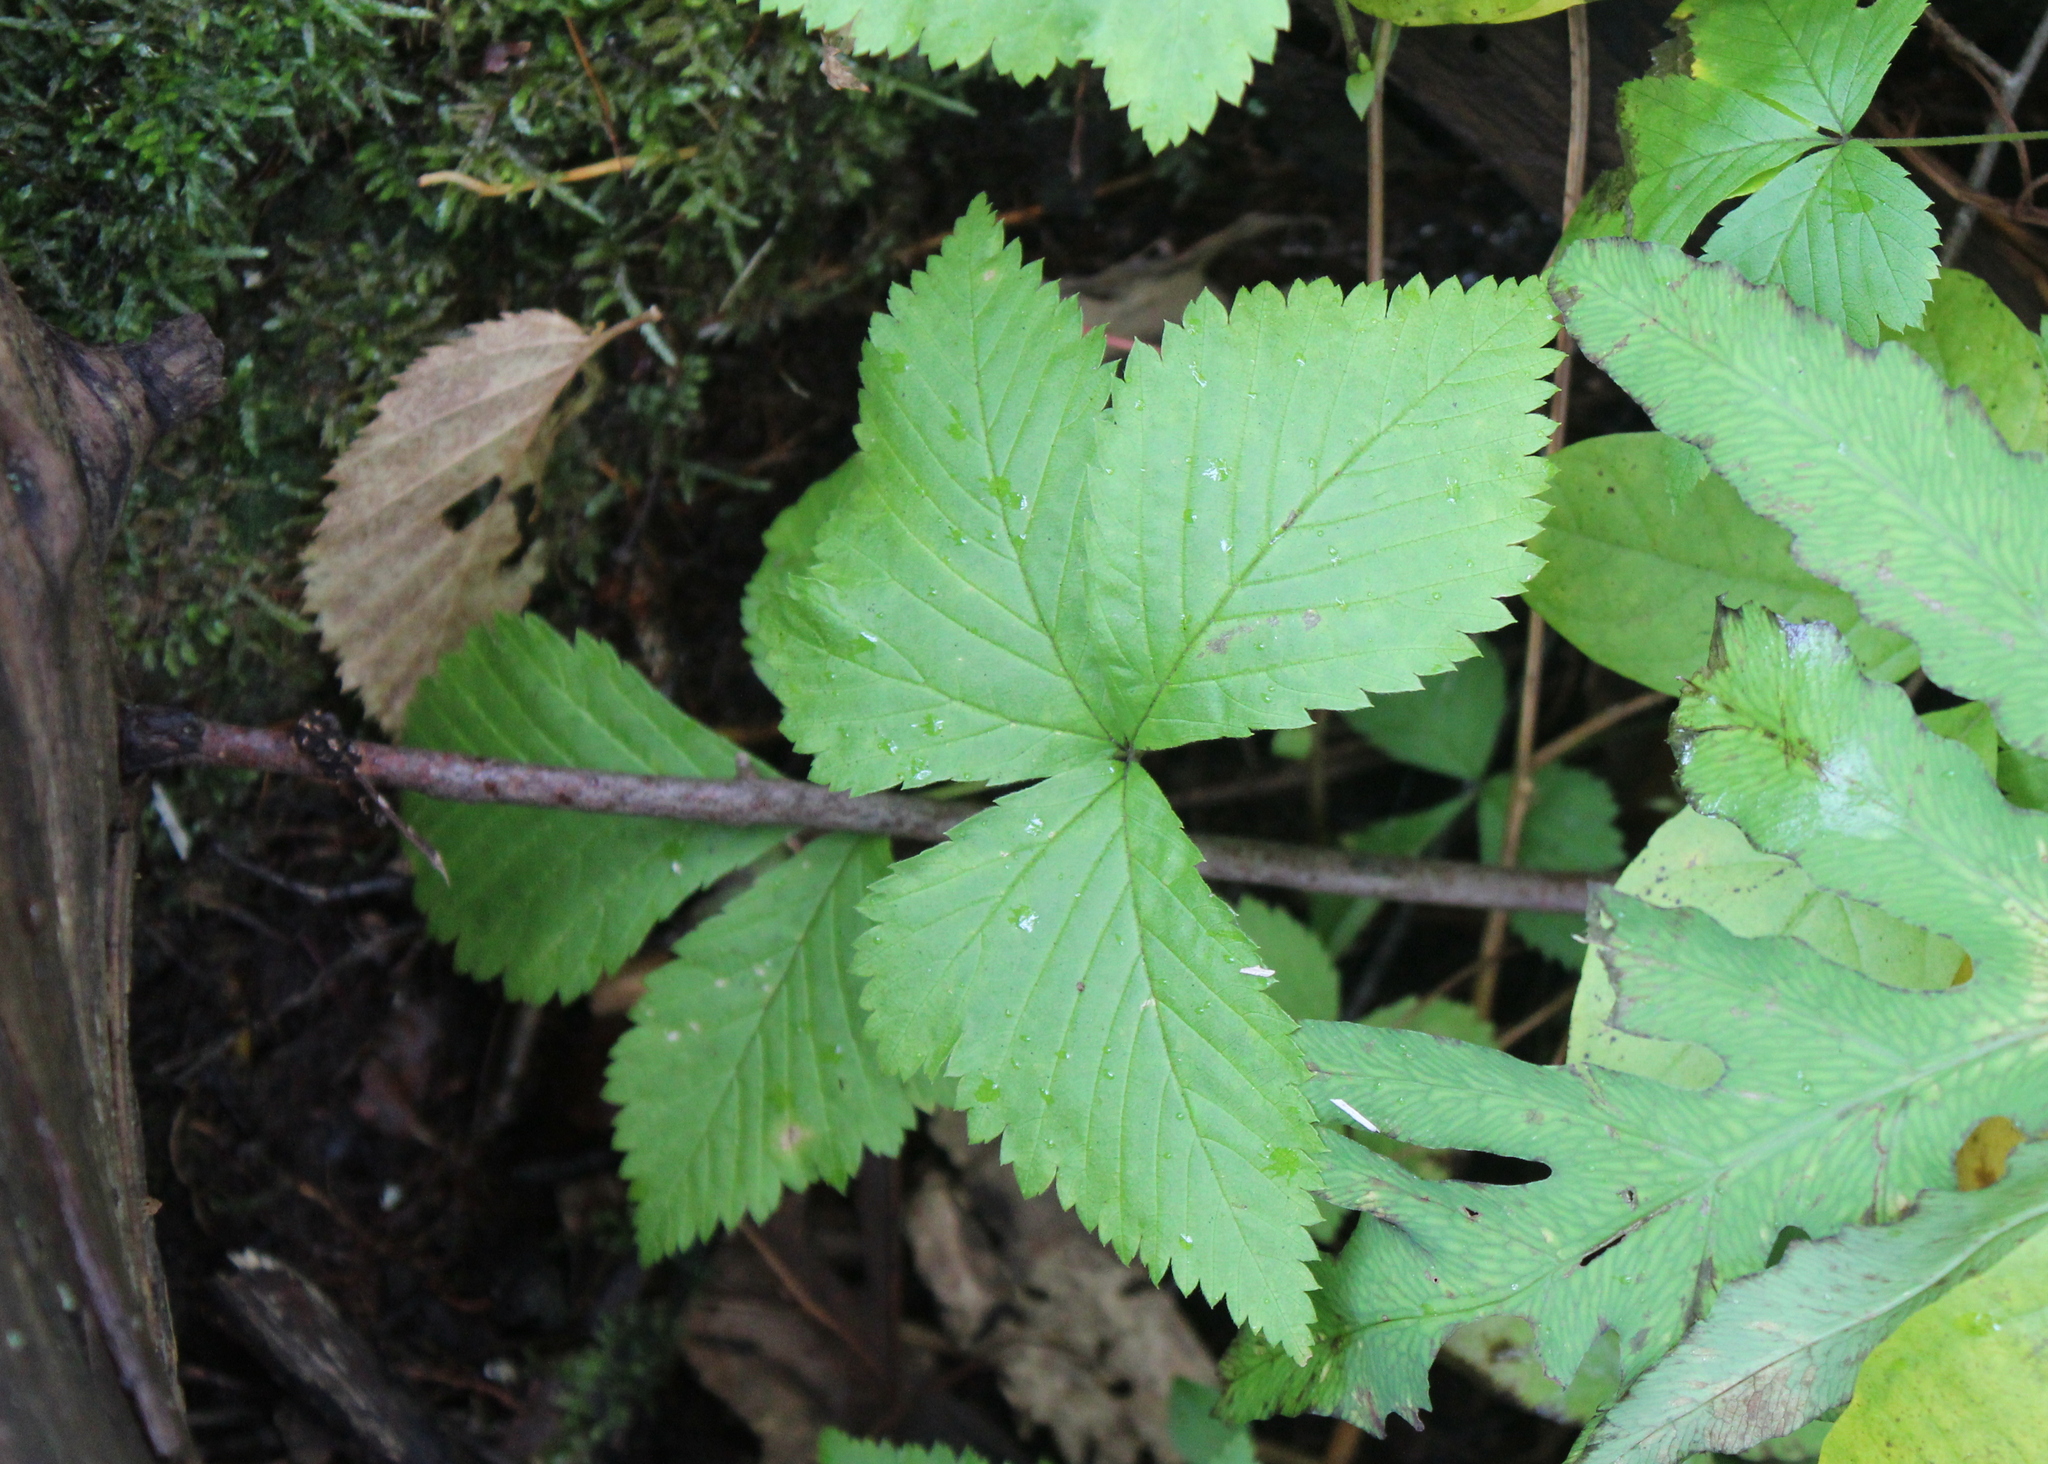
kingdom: Plantae
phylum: Tracheophyta
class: Magnoliopsida
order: Rosales
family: Rosaceae
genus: Rubus
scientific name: Rubus pubescens
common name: Dwarf raspberry
